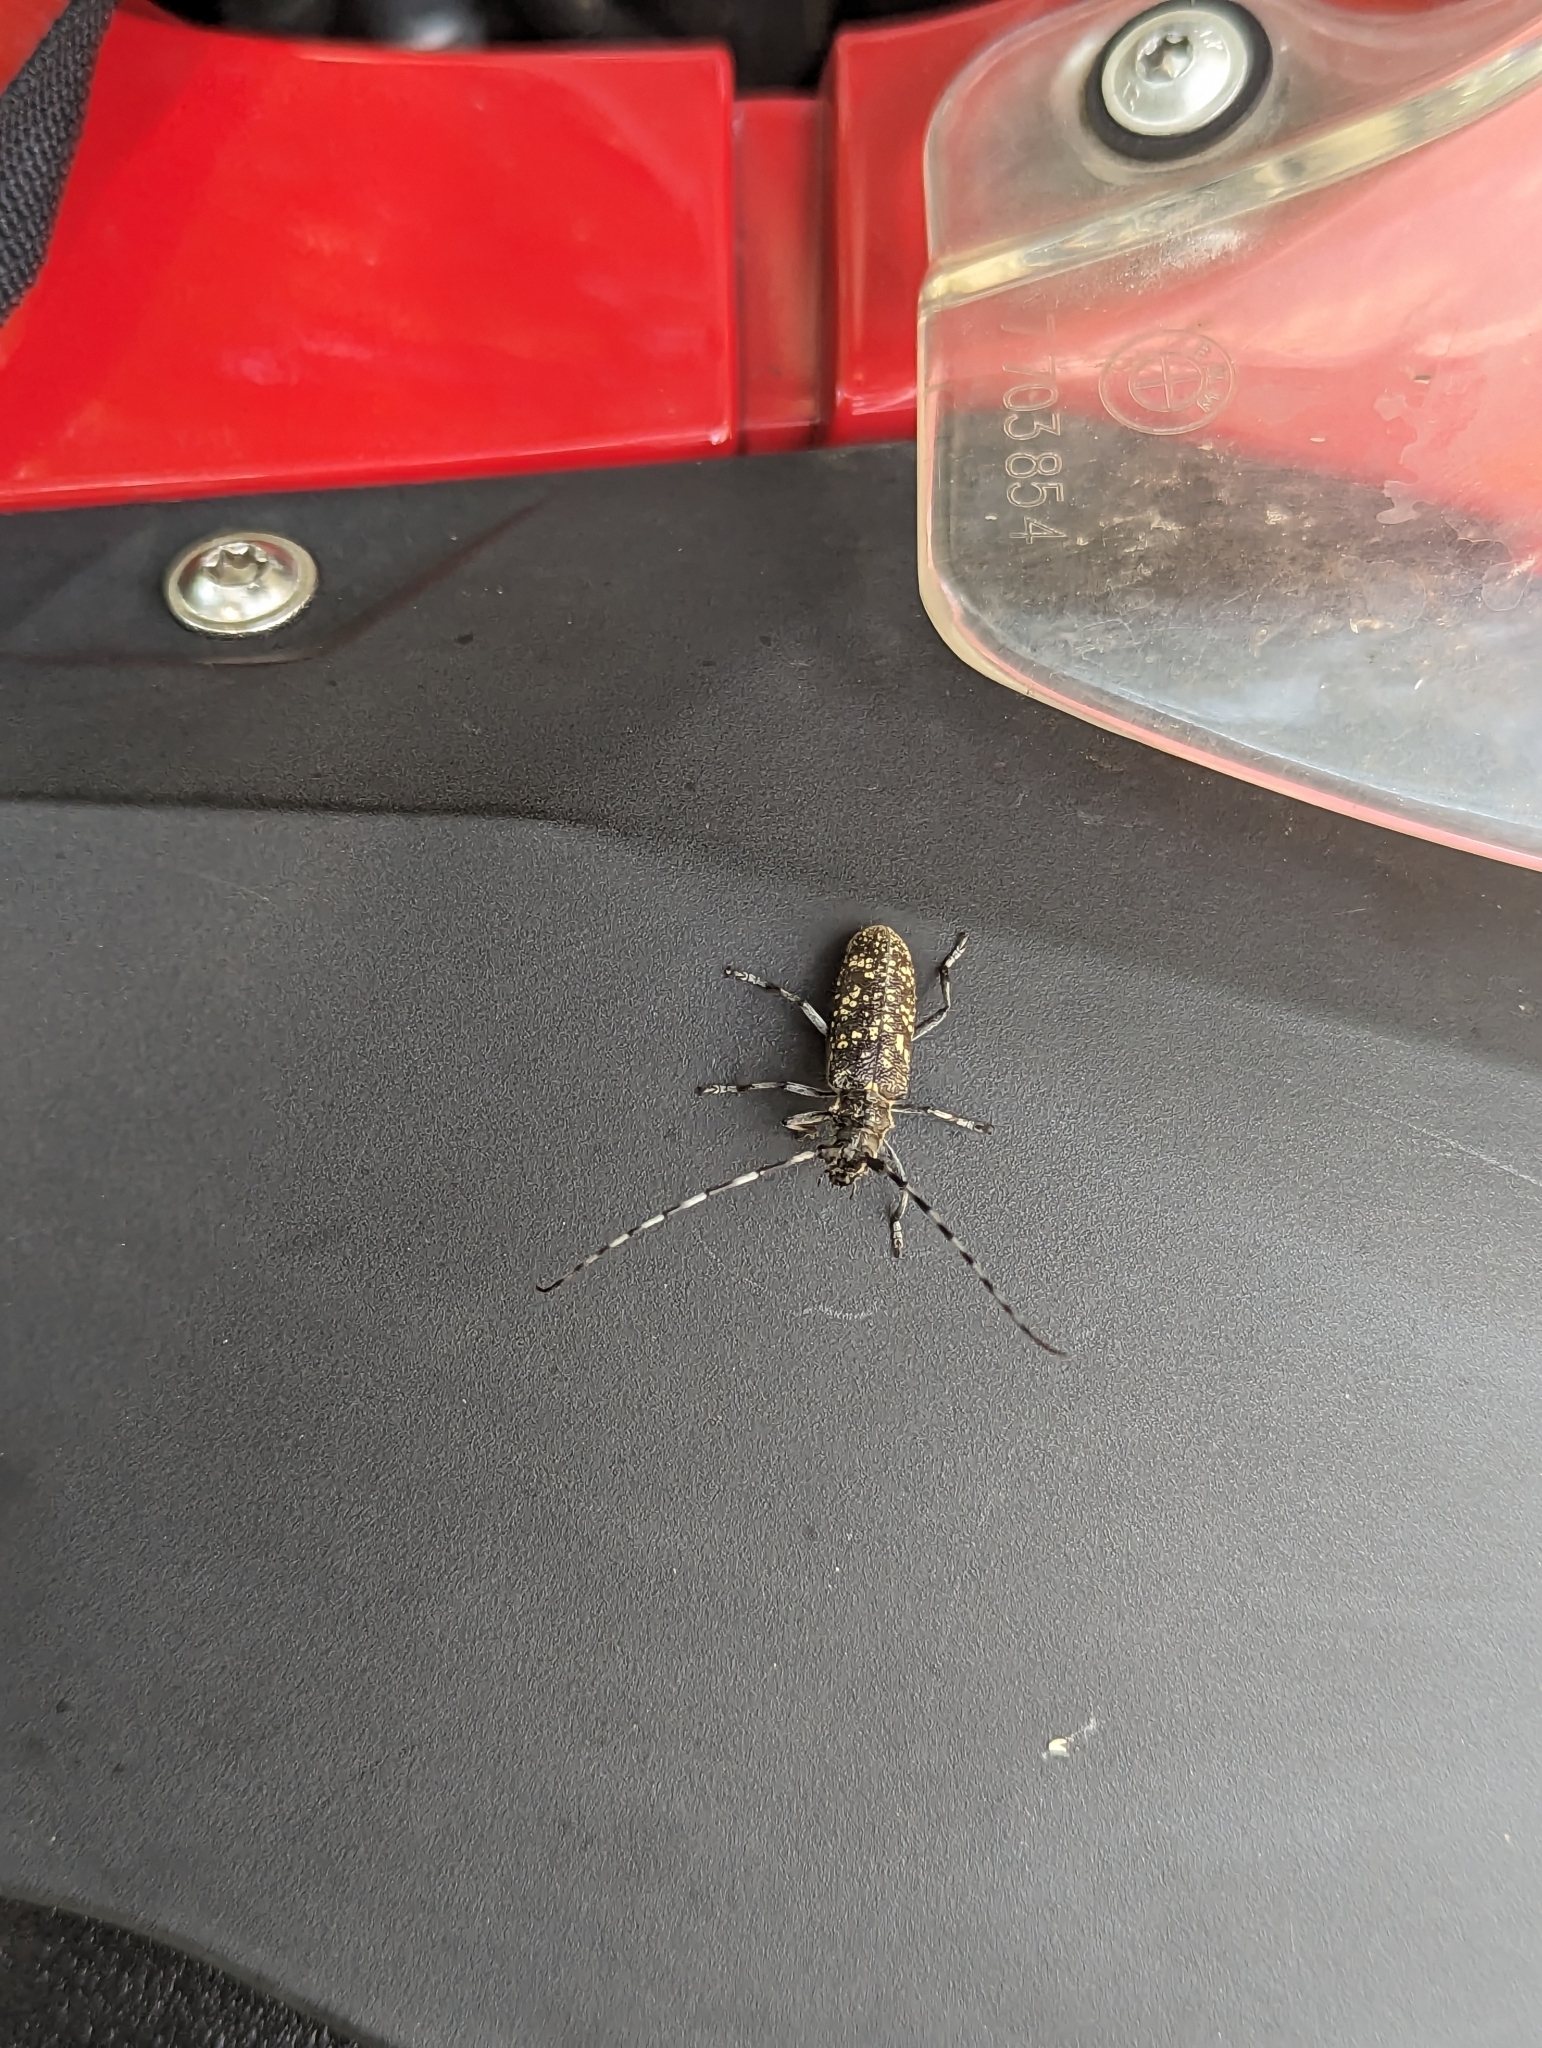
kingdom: Animalia
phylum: Arthropoda
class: Insecta
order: Coleoptera
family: Cerambycidae
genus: Monochamus
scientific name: Monochamus sutor
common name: Pine sawyer
